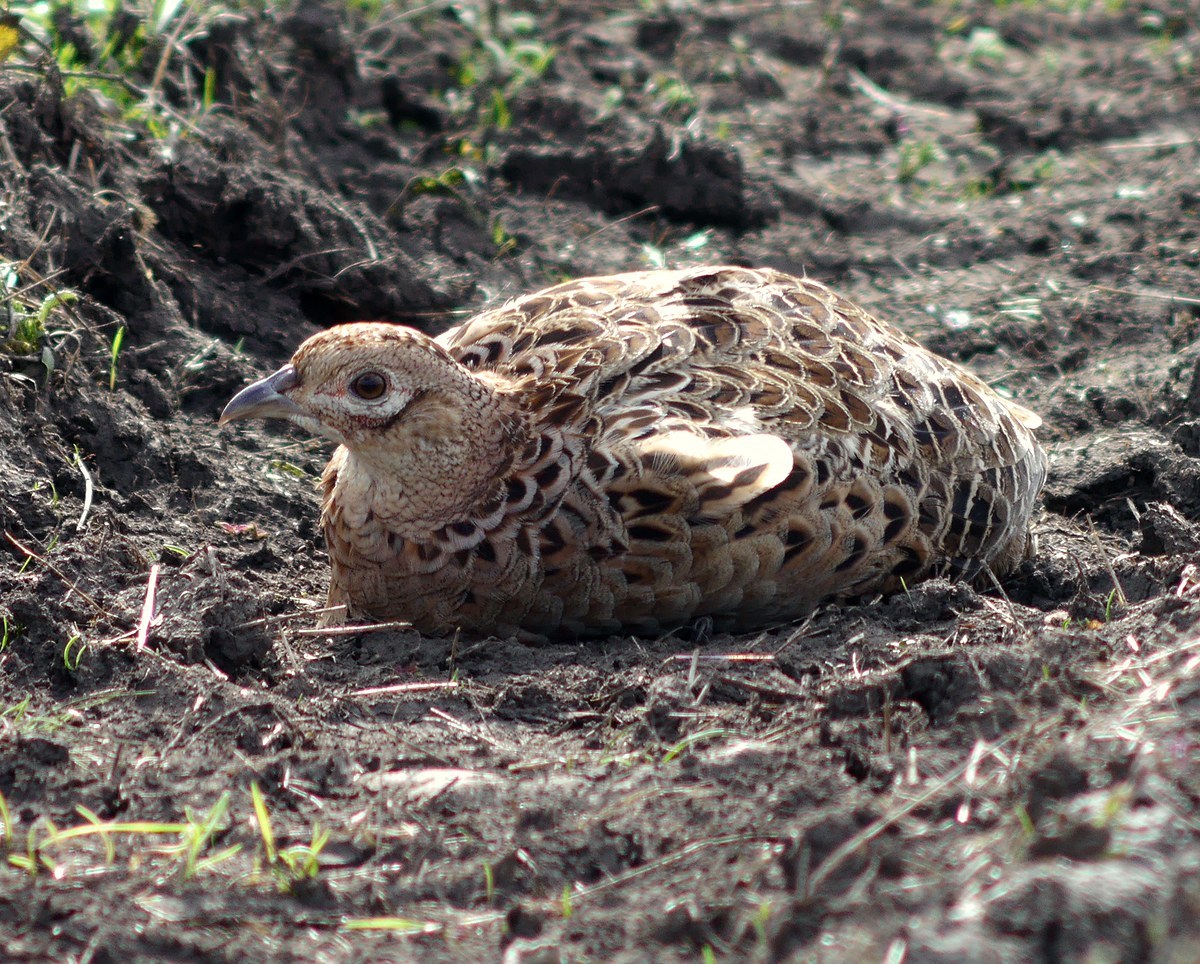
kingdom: Animalia
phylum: Chordata
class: Aves
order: Galliformes
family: Phasianidae
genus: Phasianus
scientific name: Phasianus colchicus
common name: Common pheasant
